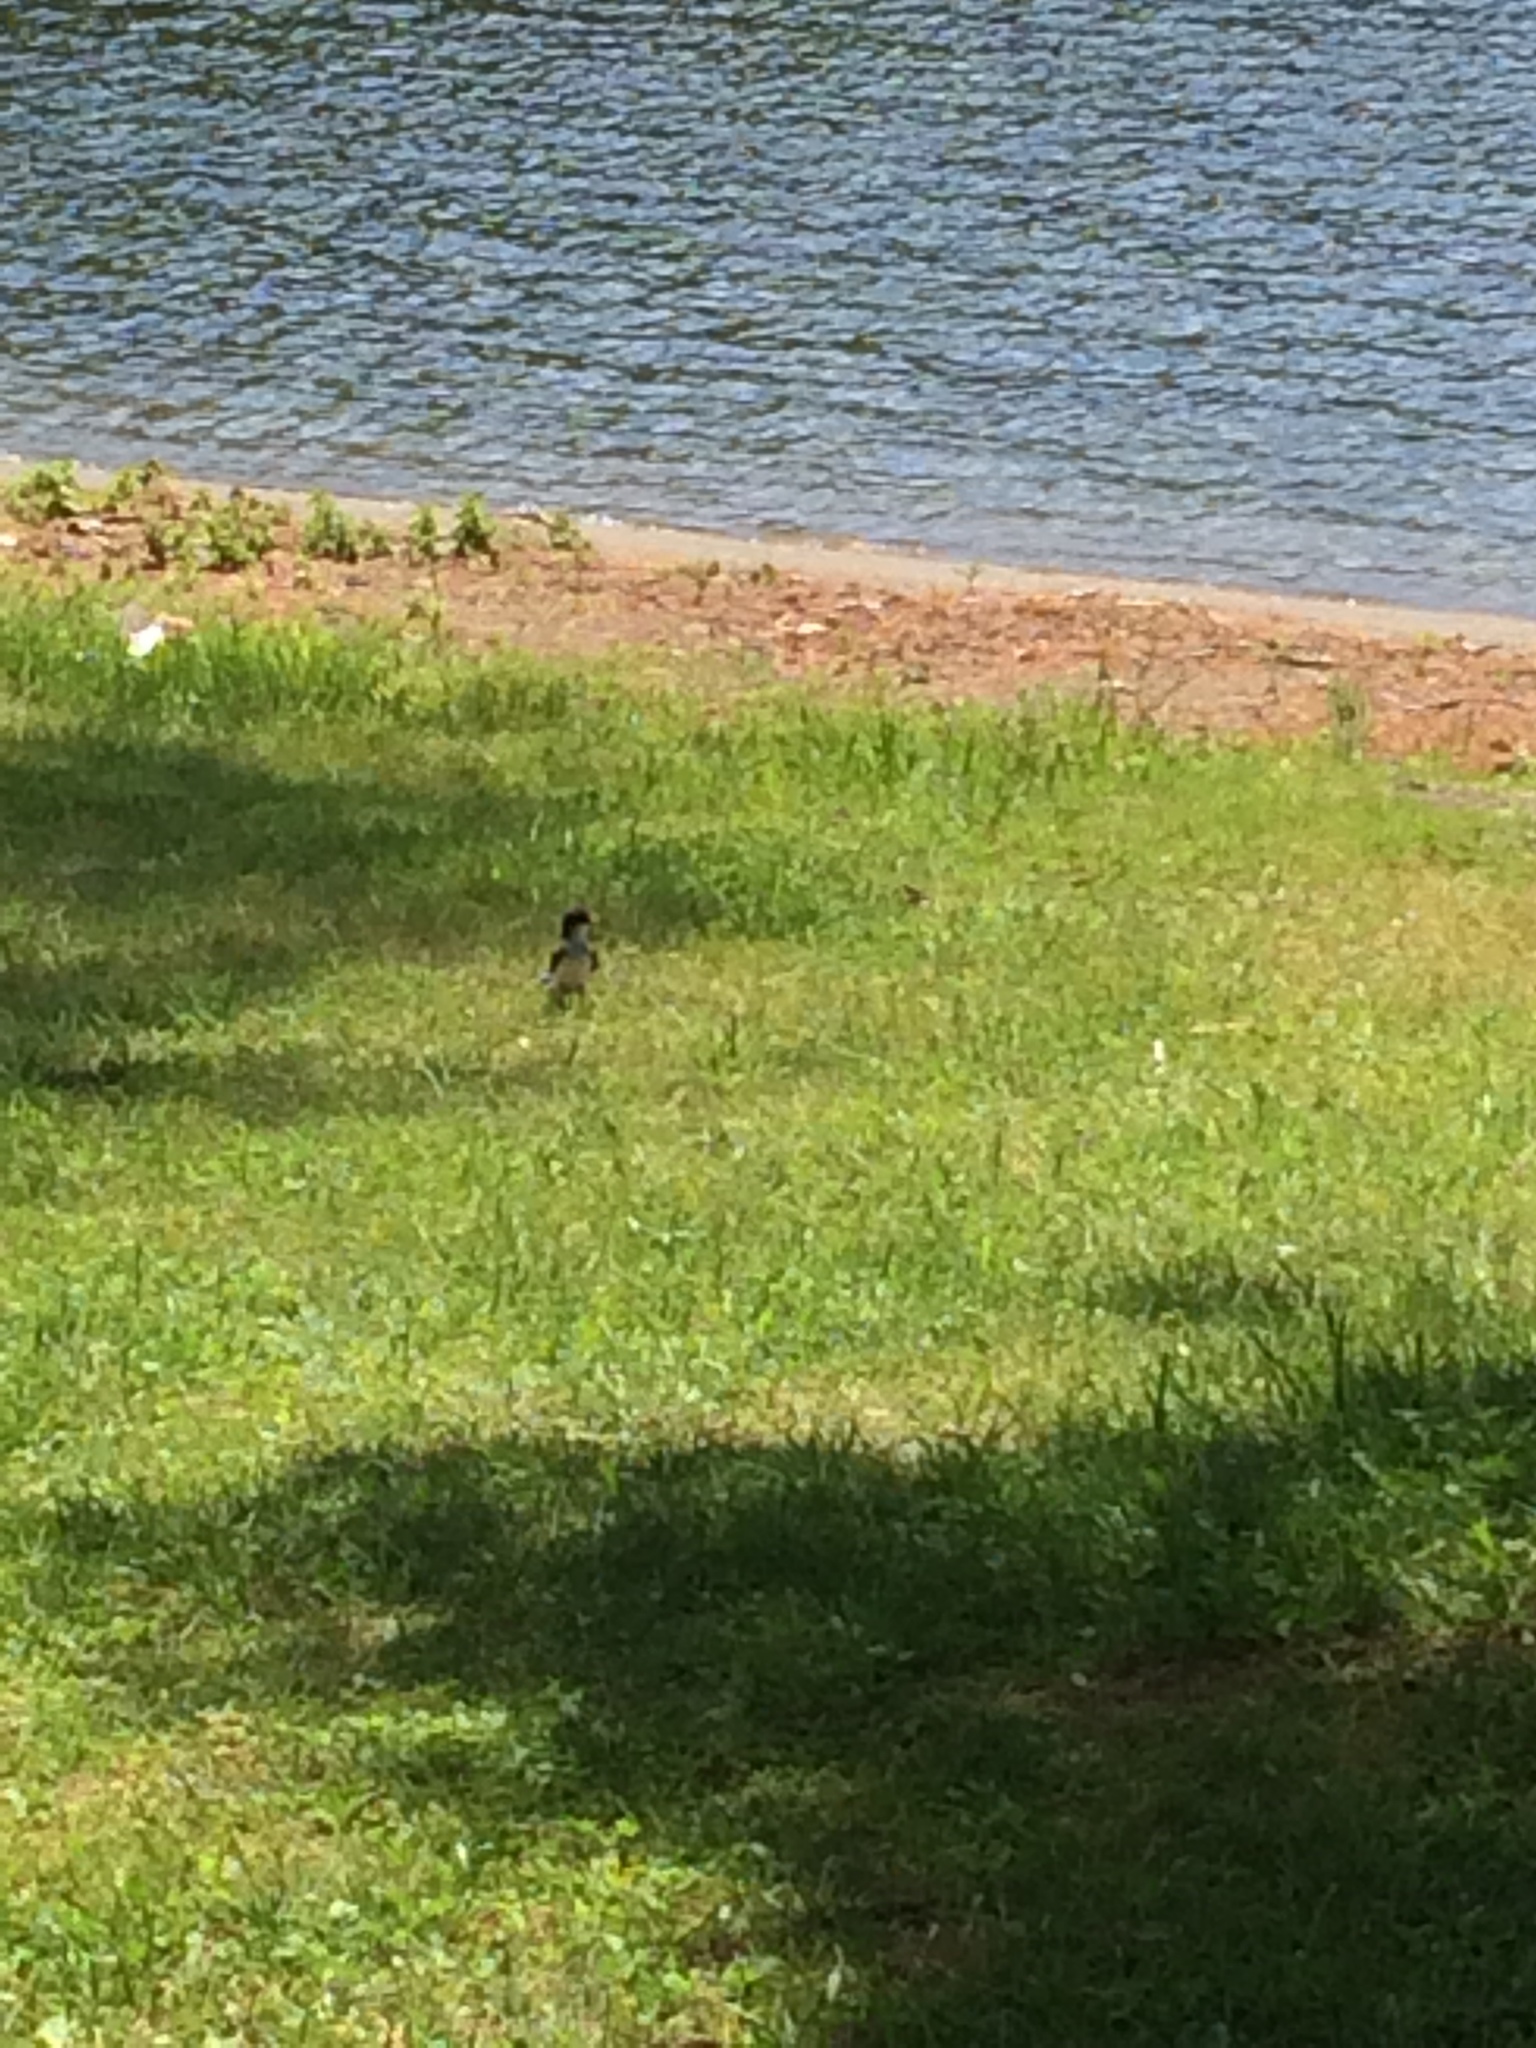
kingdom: Animalia
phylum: Chordata
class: Aves
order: Passeriformes
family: Tyrannidae
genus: Sayornis
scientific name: Sayornis phoebe
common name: Eastern phoebe
